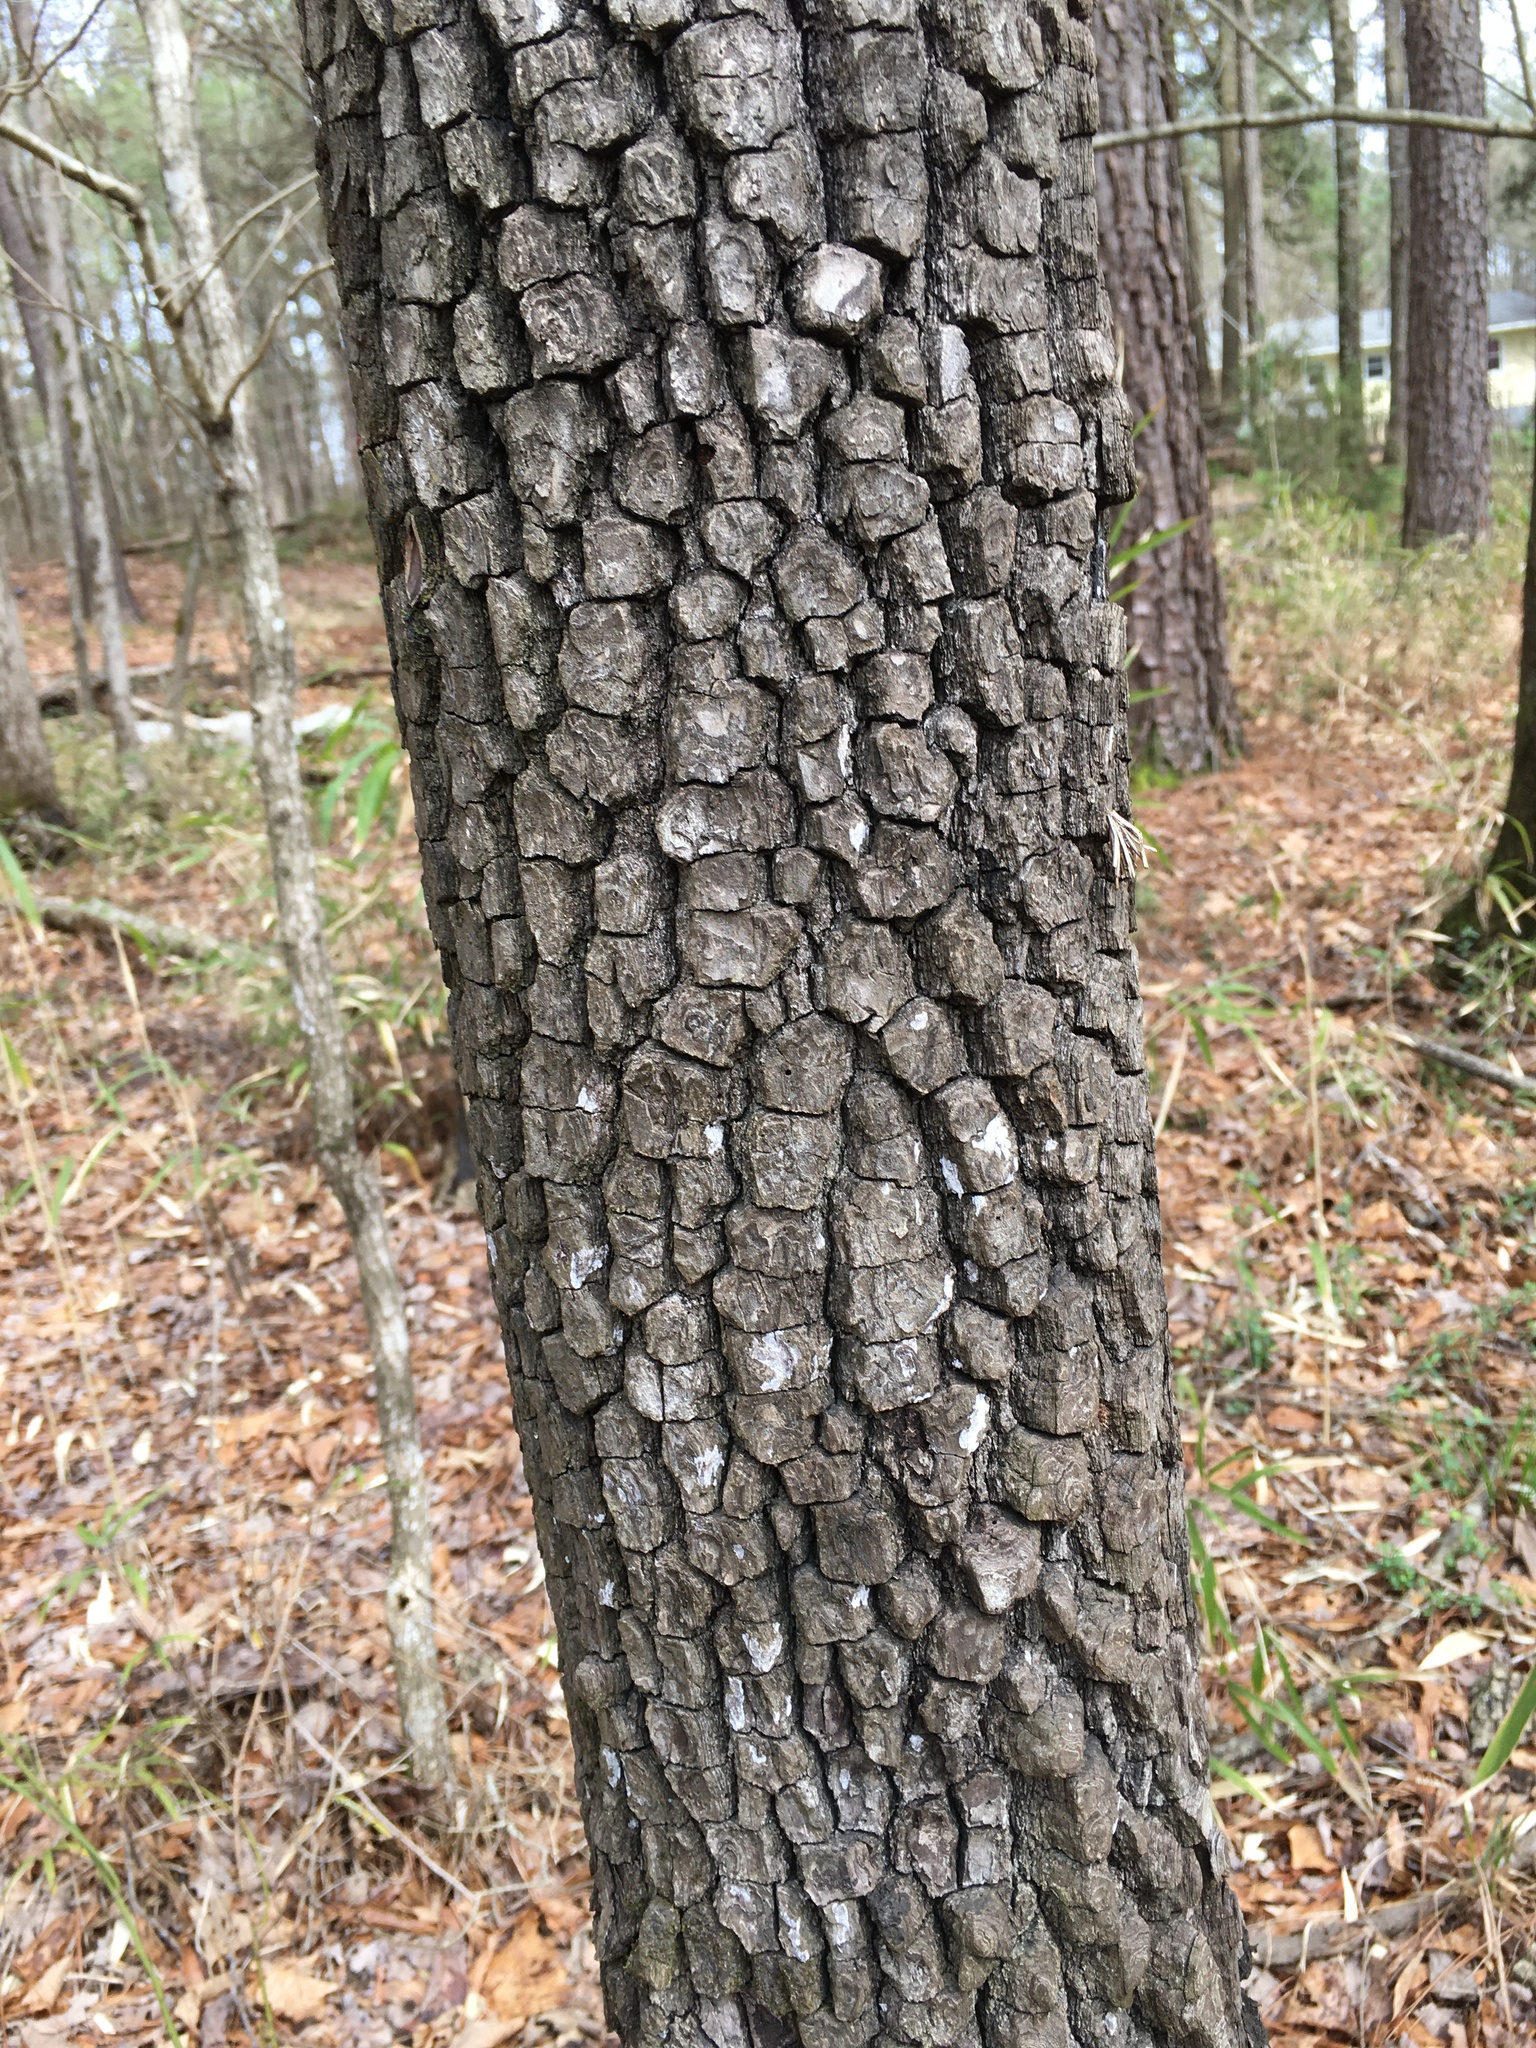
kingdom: Plantae
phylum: Tracheophyta
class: Magnoliopsida
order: Ericales
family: Ebenaceae
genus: Diospyros
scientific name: Diospyros virginiana
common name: Persimmon
